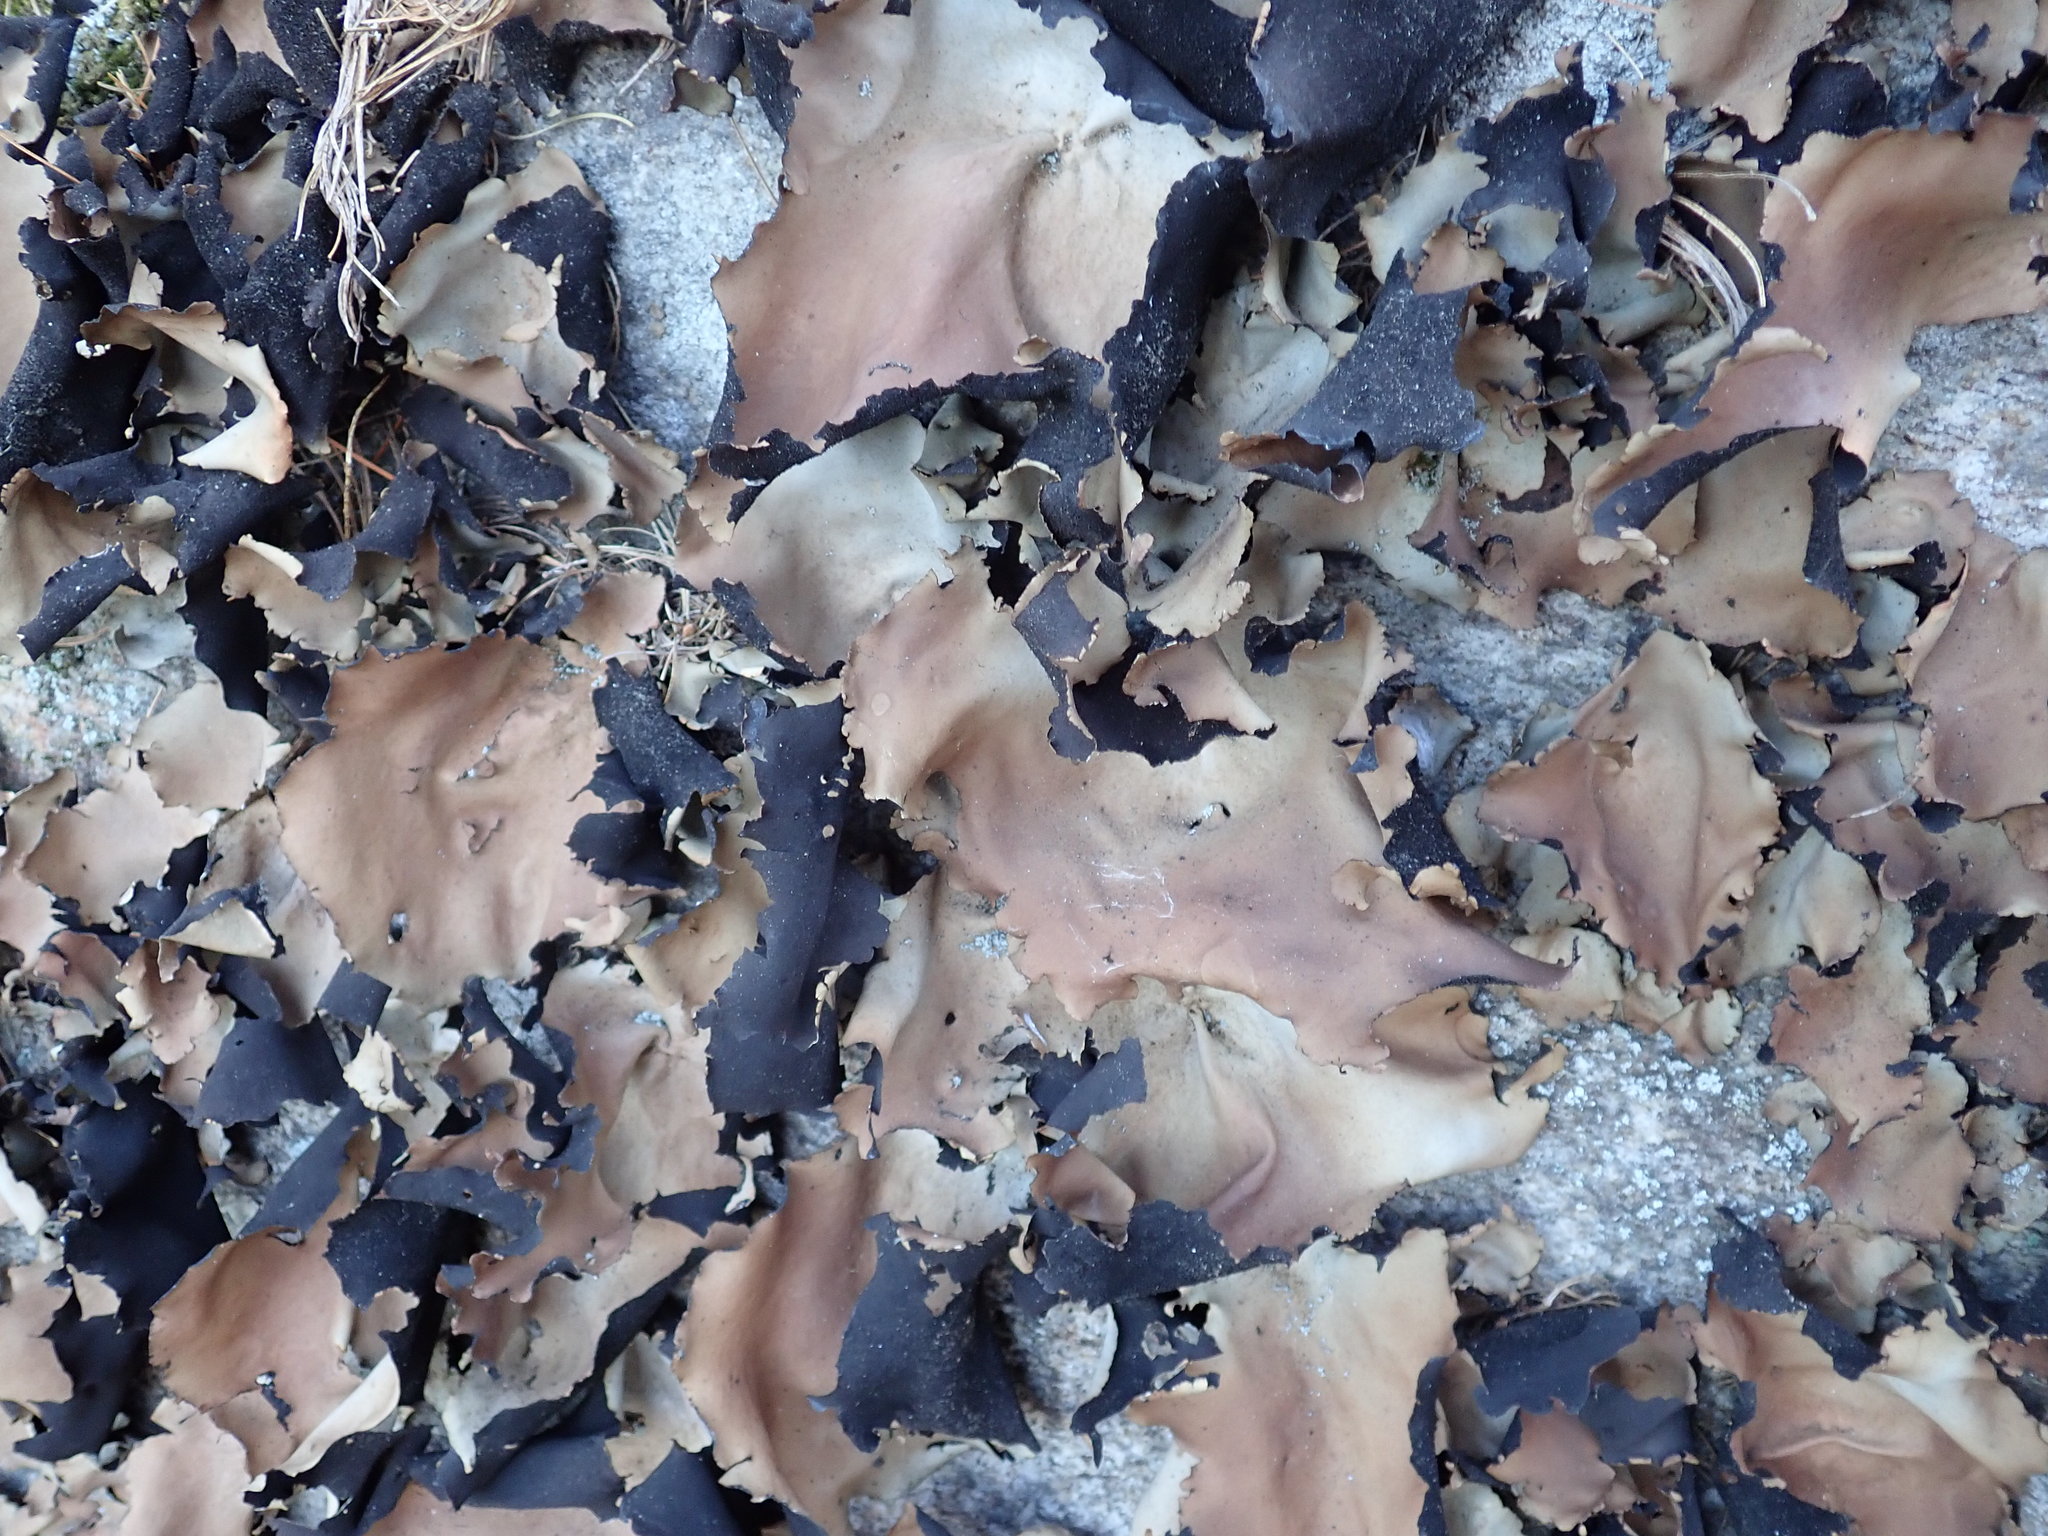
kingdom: Fungi
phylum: Ascomycota
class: Lecanoromycetes
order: Umbilicariales
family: Umbilicariaceae
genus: Umbilicaria
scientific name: Umbilicaria mammulata
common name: Smooth rock tripe
